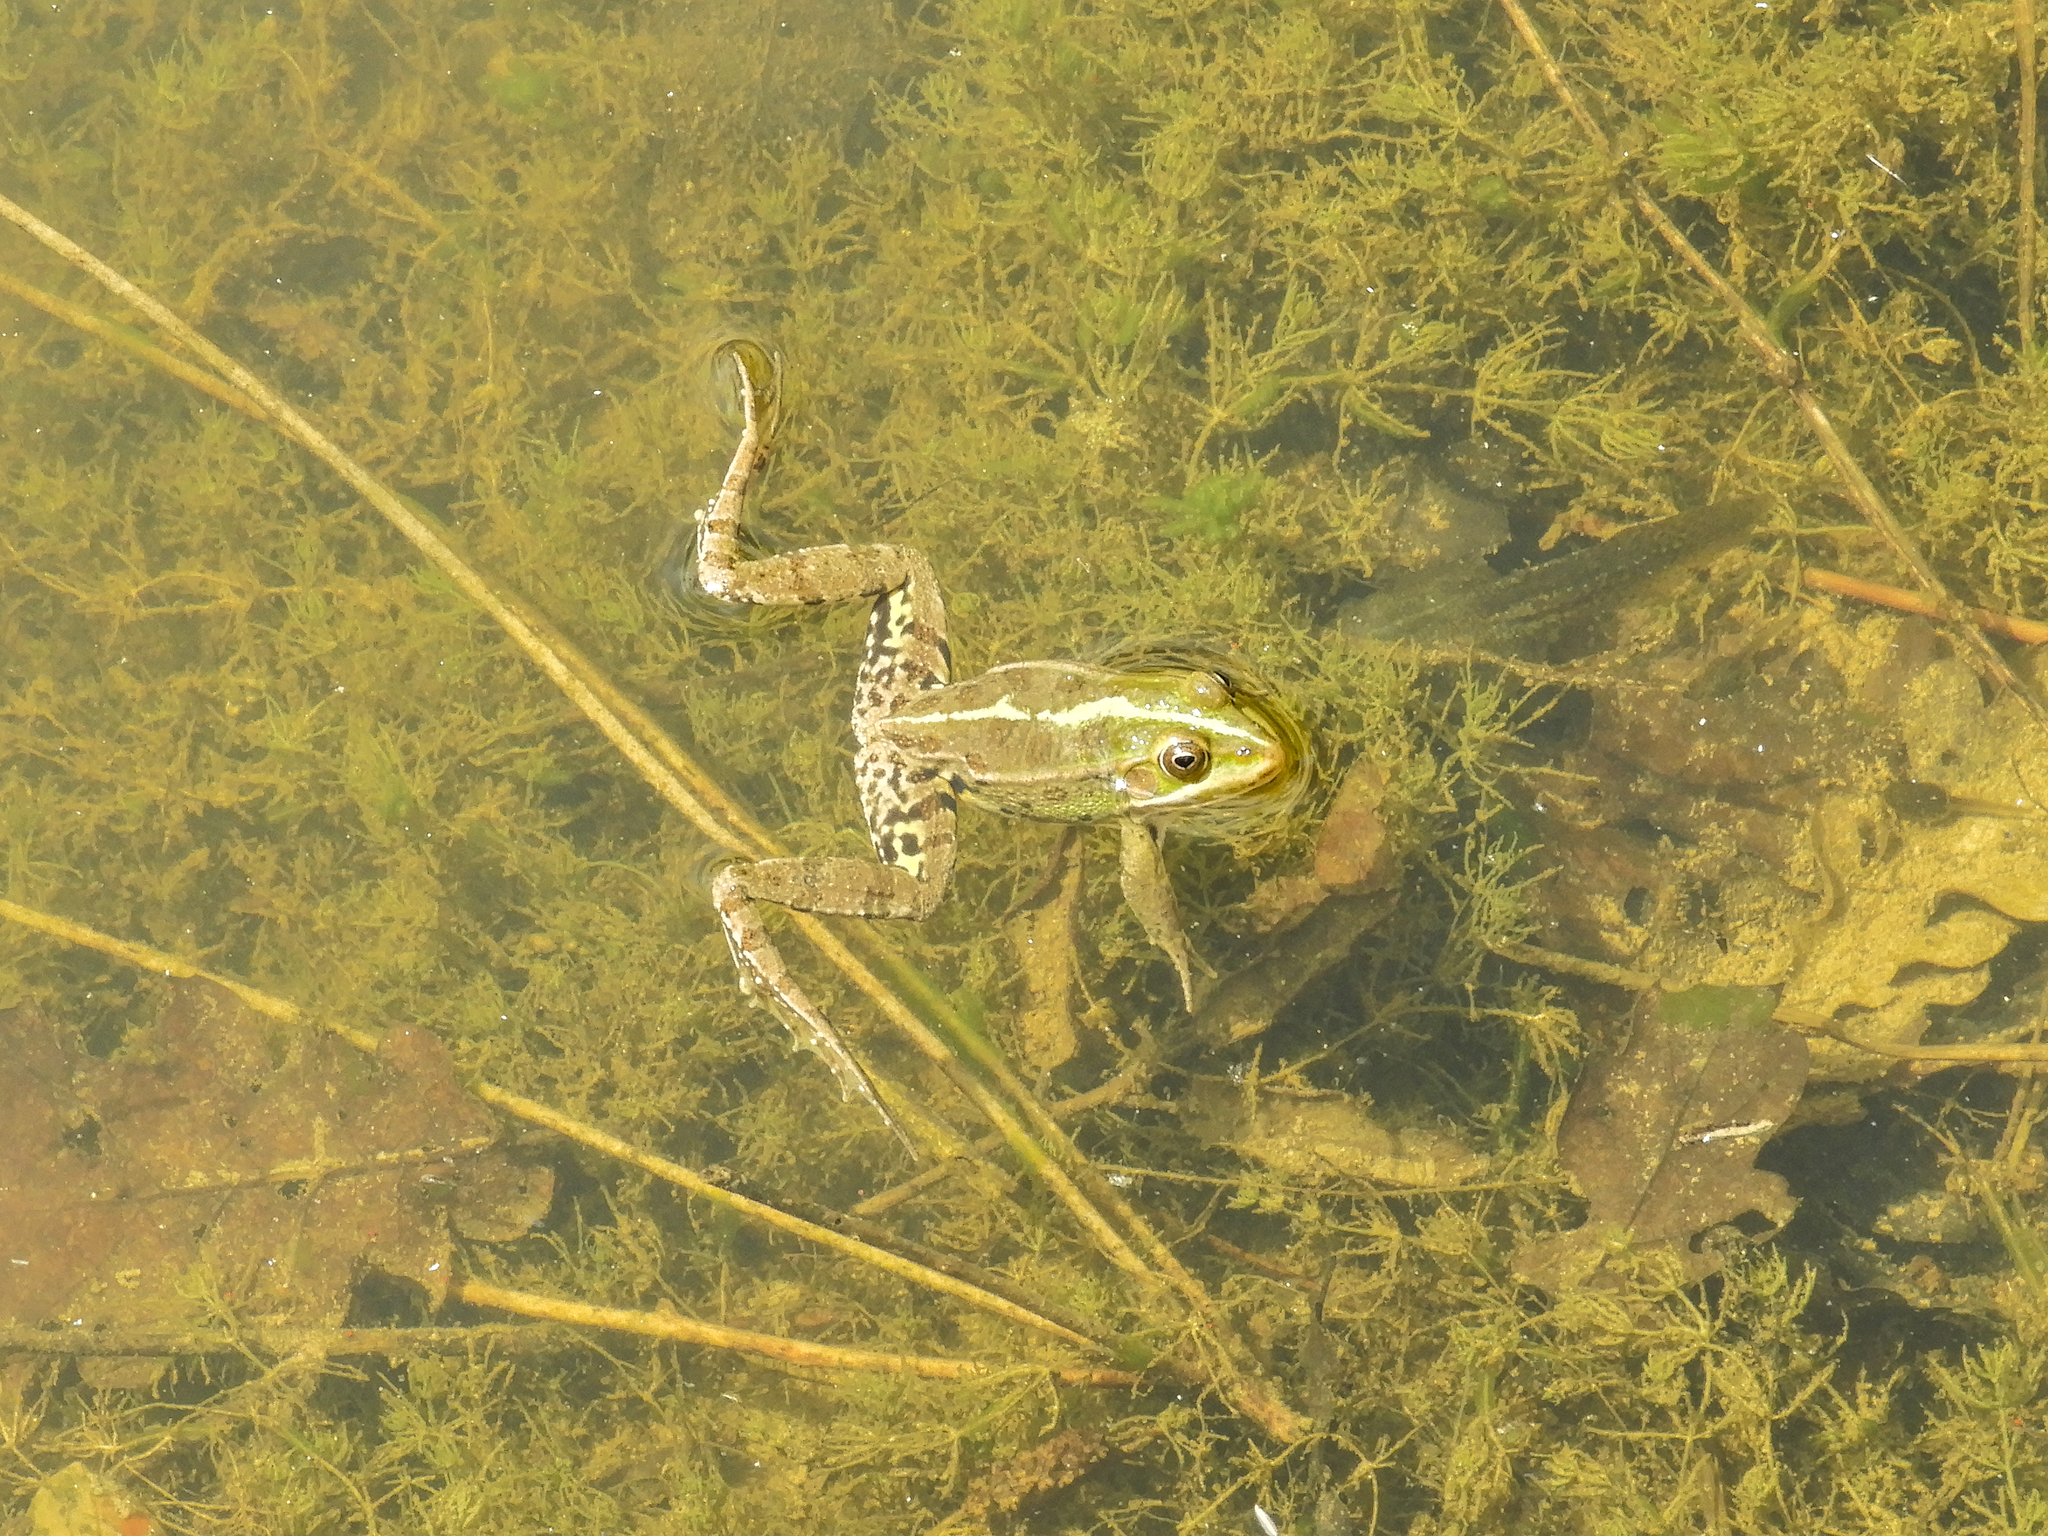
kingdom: Animalia
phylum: Chordata
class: Amphibia
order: Anura
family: Ranidae
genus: Pelophylax
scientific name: Pelophylax
